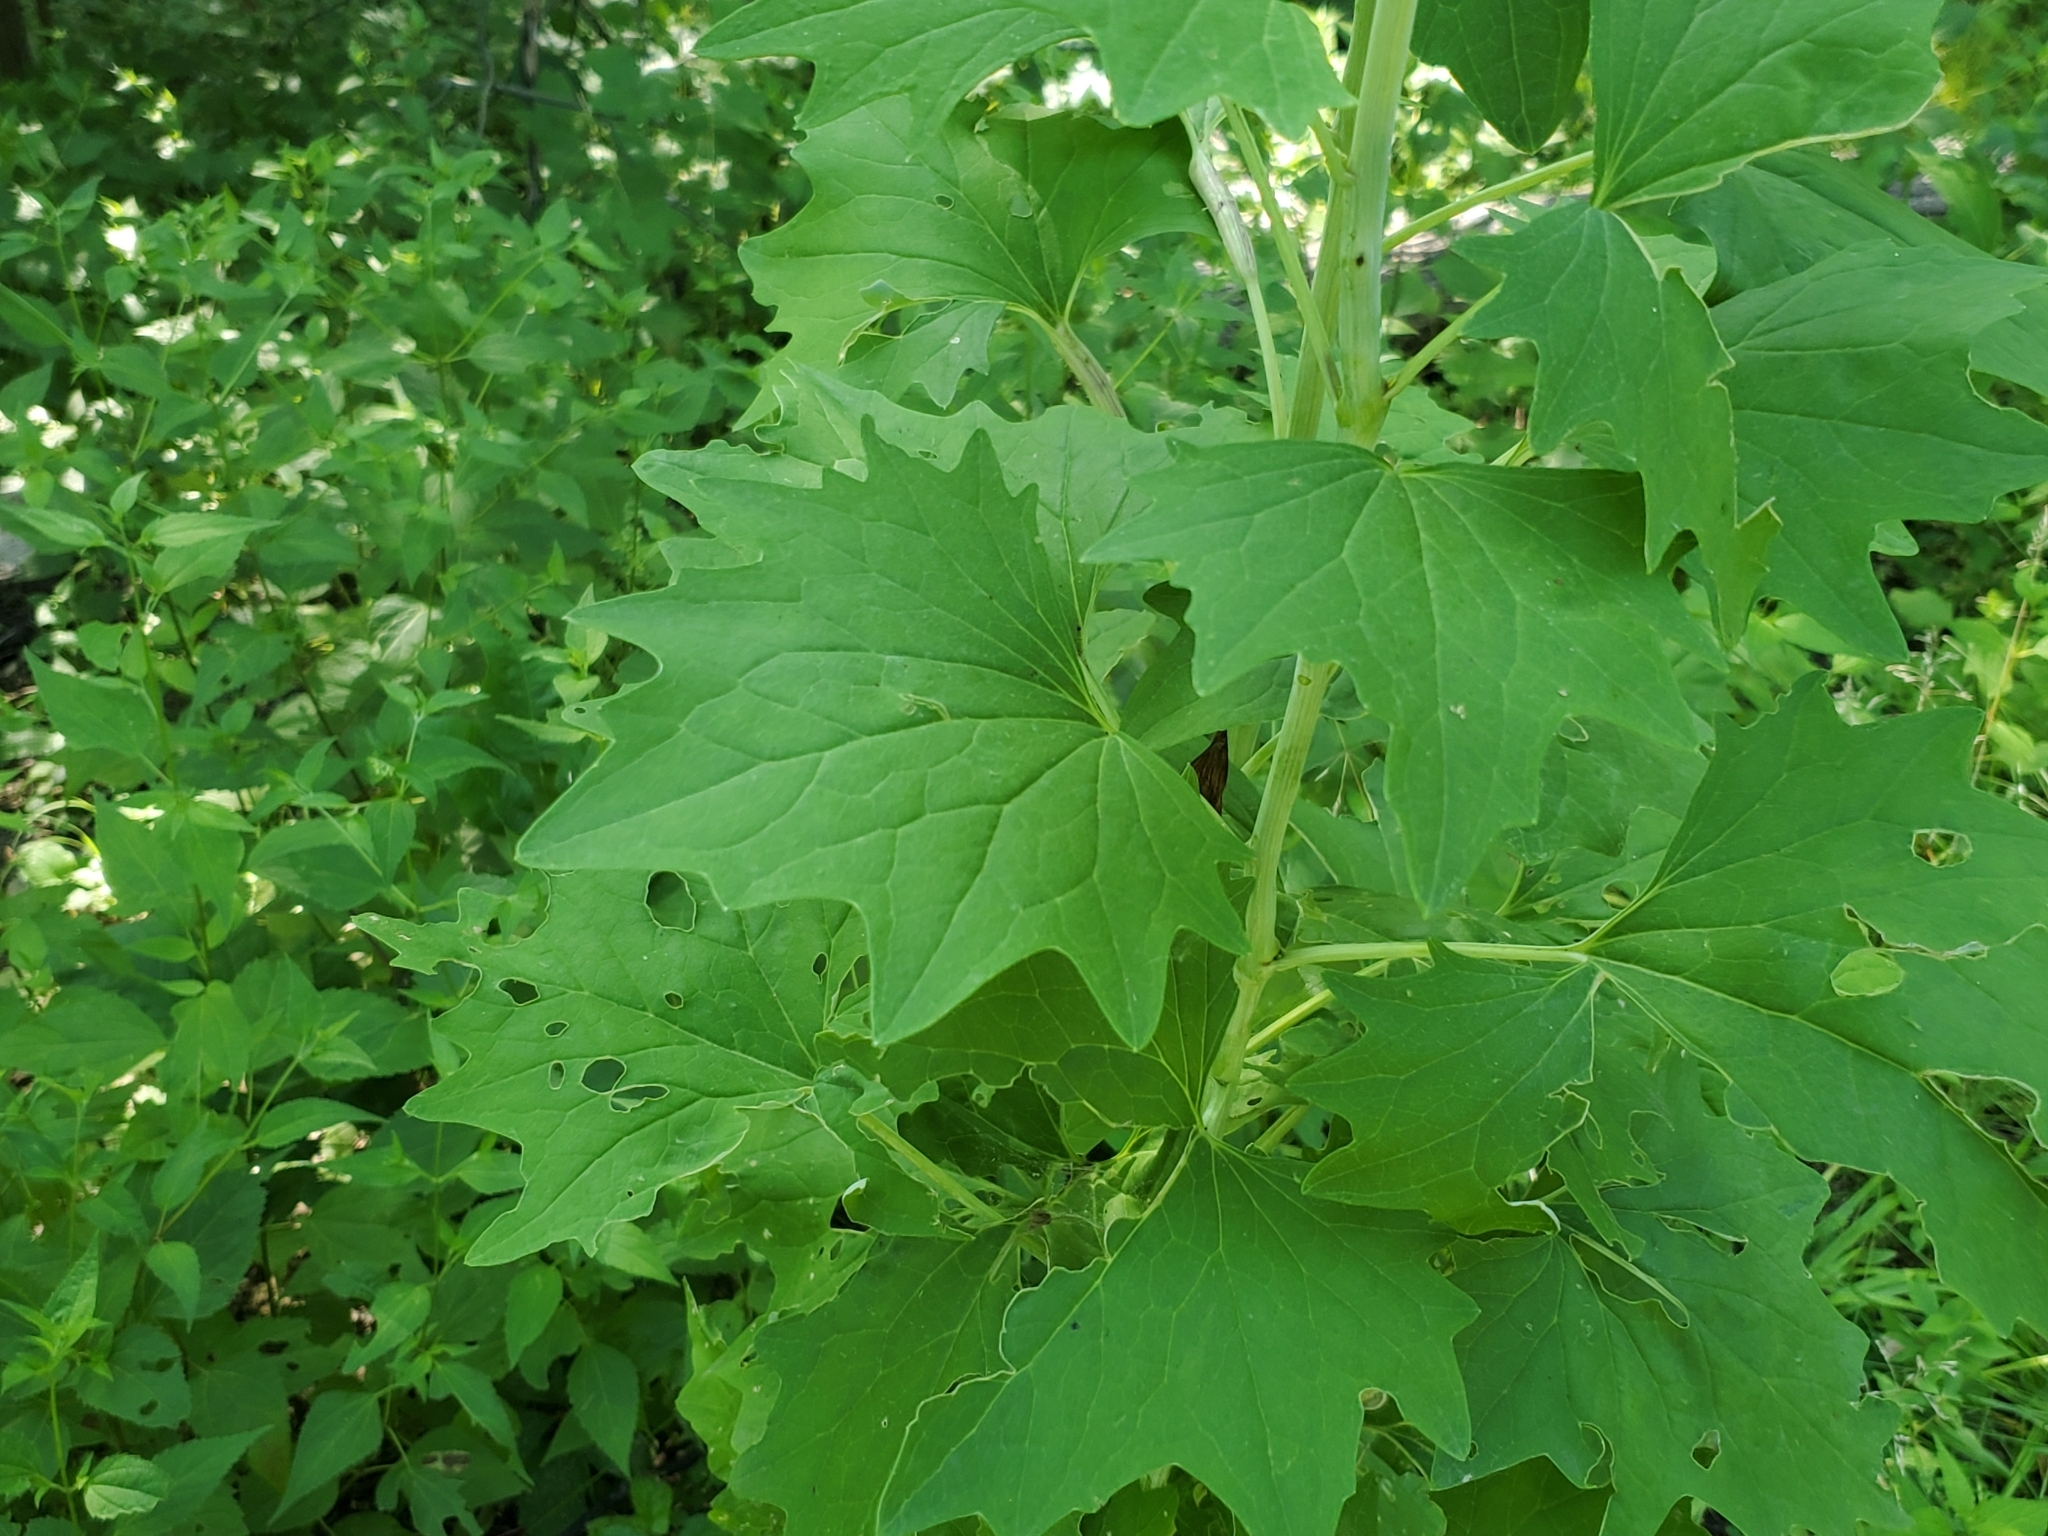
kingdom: Plantae
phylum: Tracheophyta
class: Magnoliopsida
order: Asterales
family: Asteraceae
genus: Arnoglossum
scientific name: Arnoglossum atriplicifolium
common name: Pale indian-plantain
